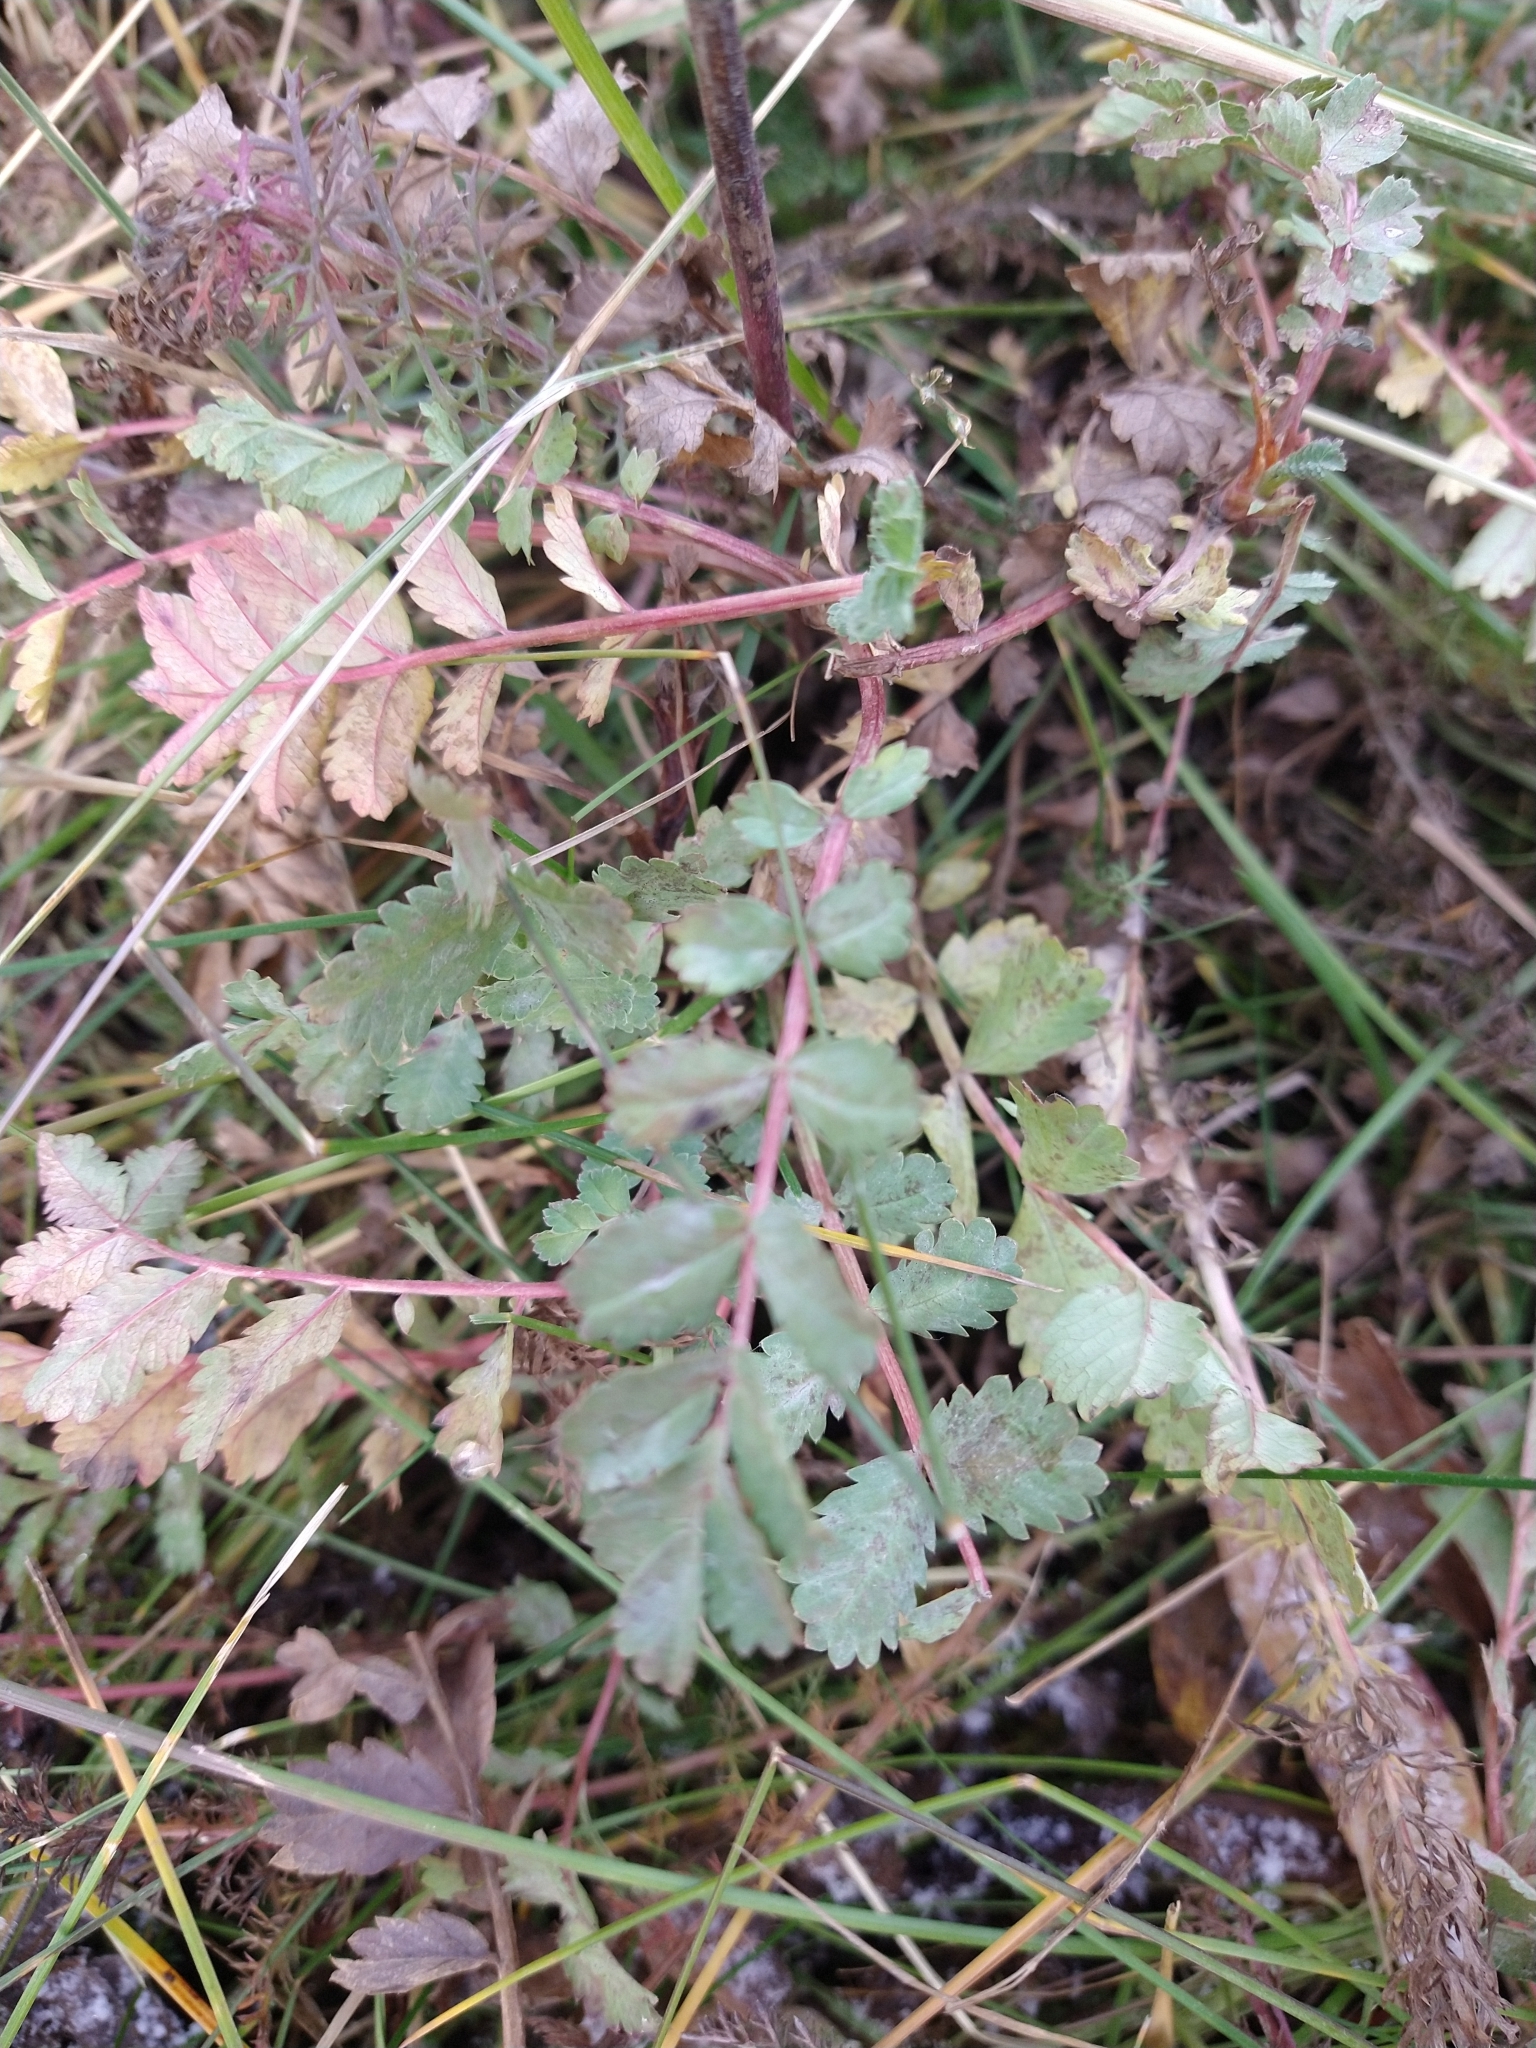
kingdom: Plantae
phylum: Tracheophyta
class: Magnoliopsida
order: Rosales
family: Rosaceae
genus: Acaena
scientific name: Acaena magellanica
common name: New zealand burr
